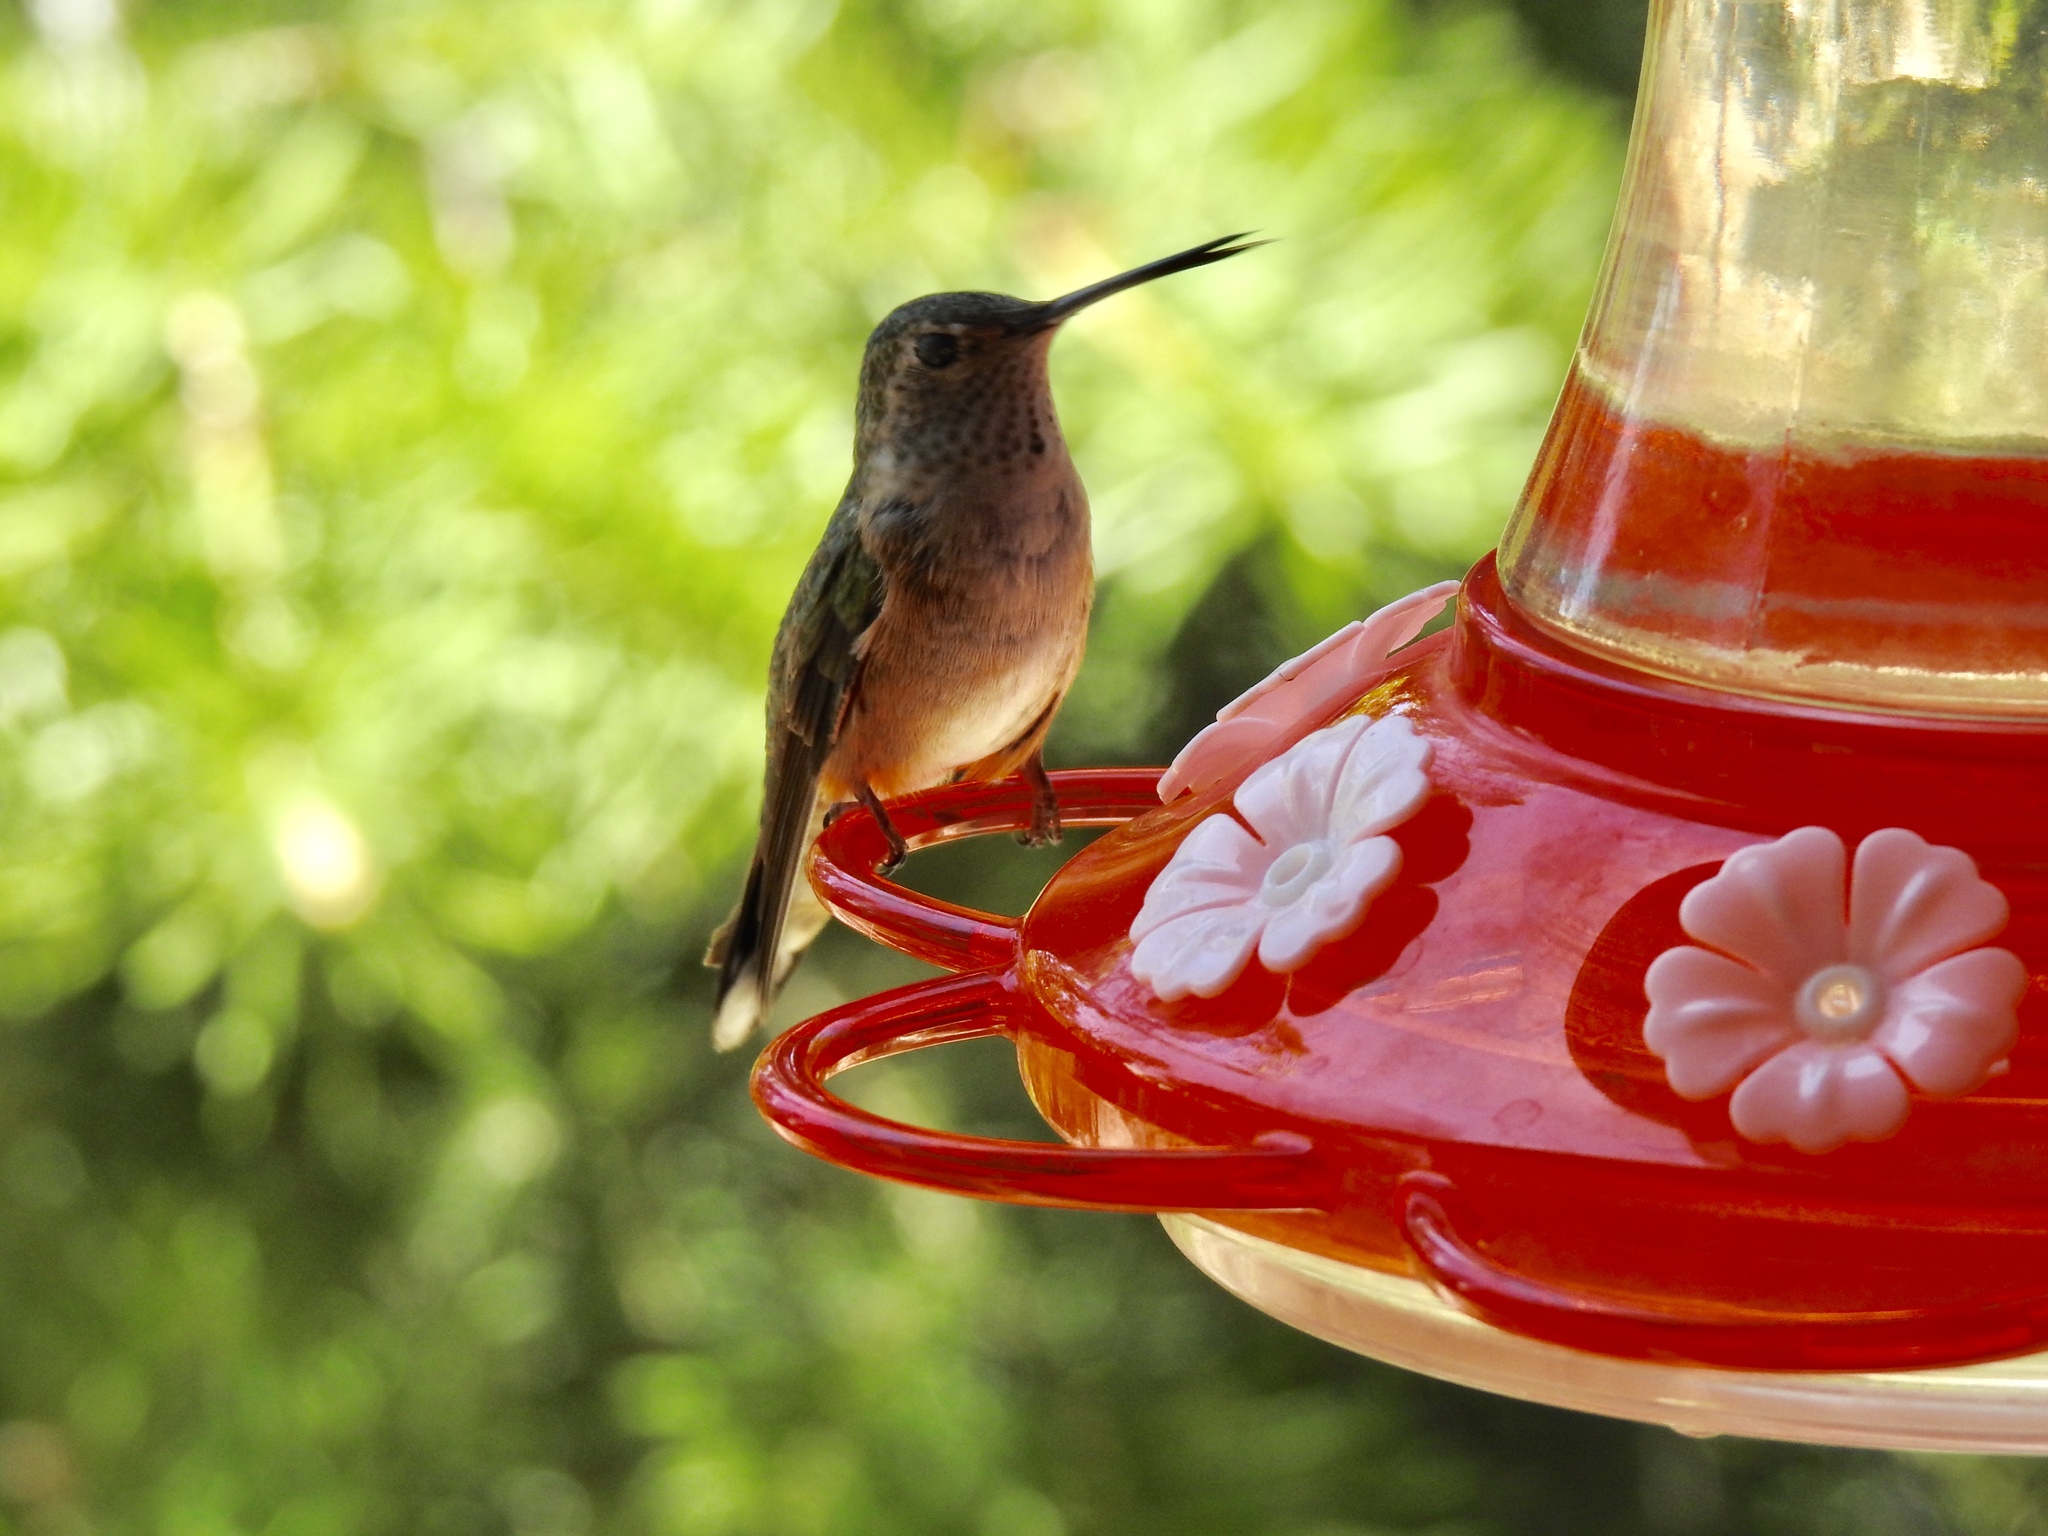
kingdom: Animalia
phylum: Chordata
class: Aves
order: Apodiformes
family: Trochilidae
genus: Selasphorus
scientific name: Selasphorus platycercus
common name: Broad-tailed hummingbird
